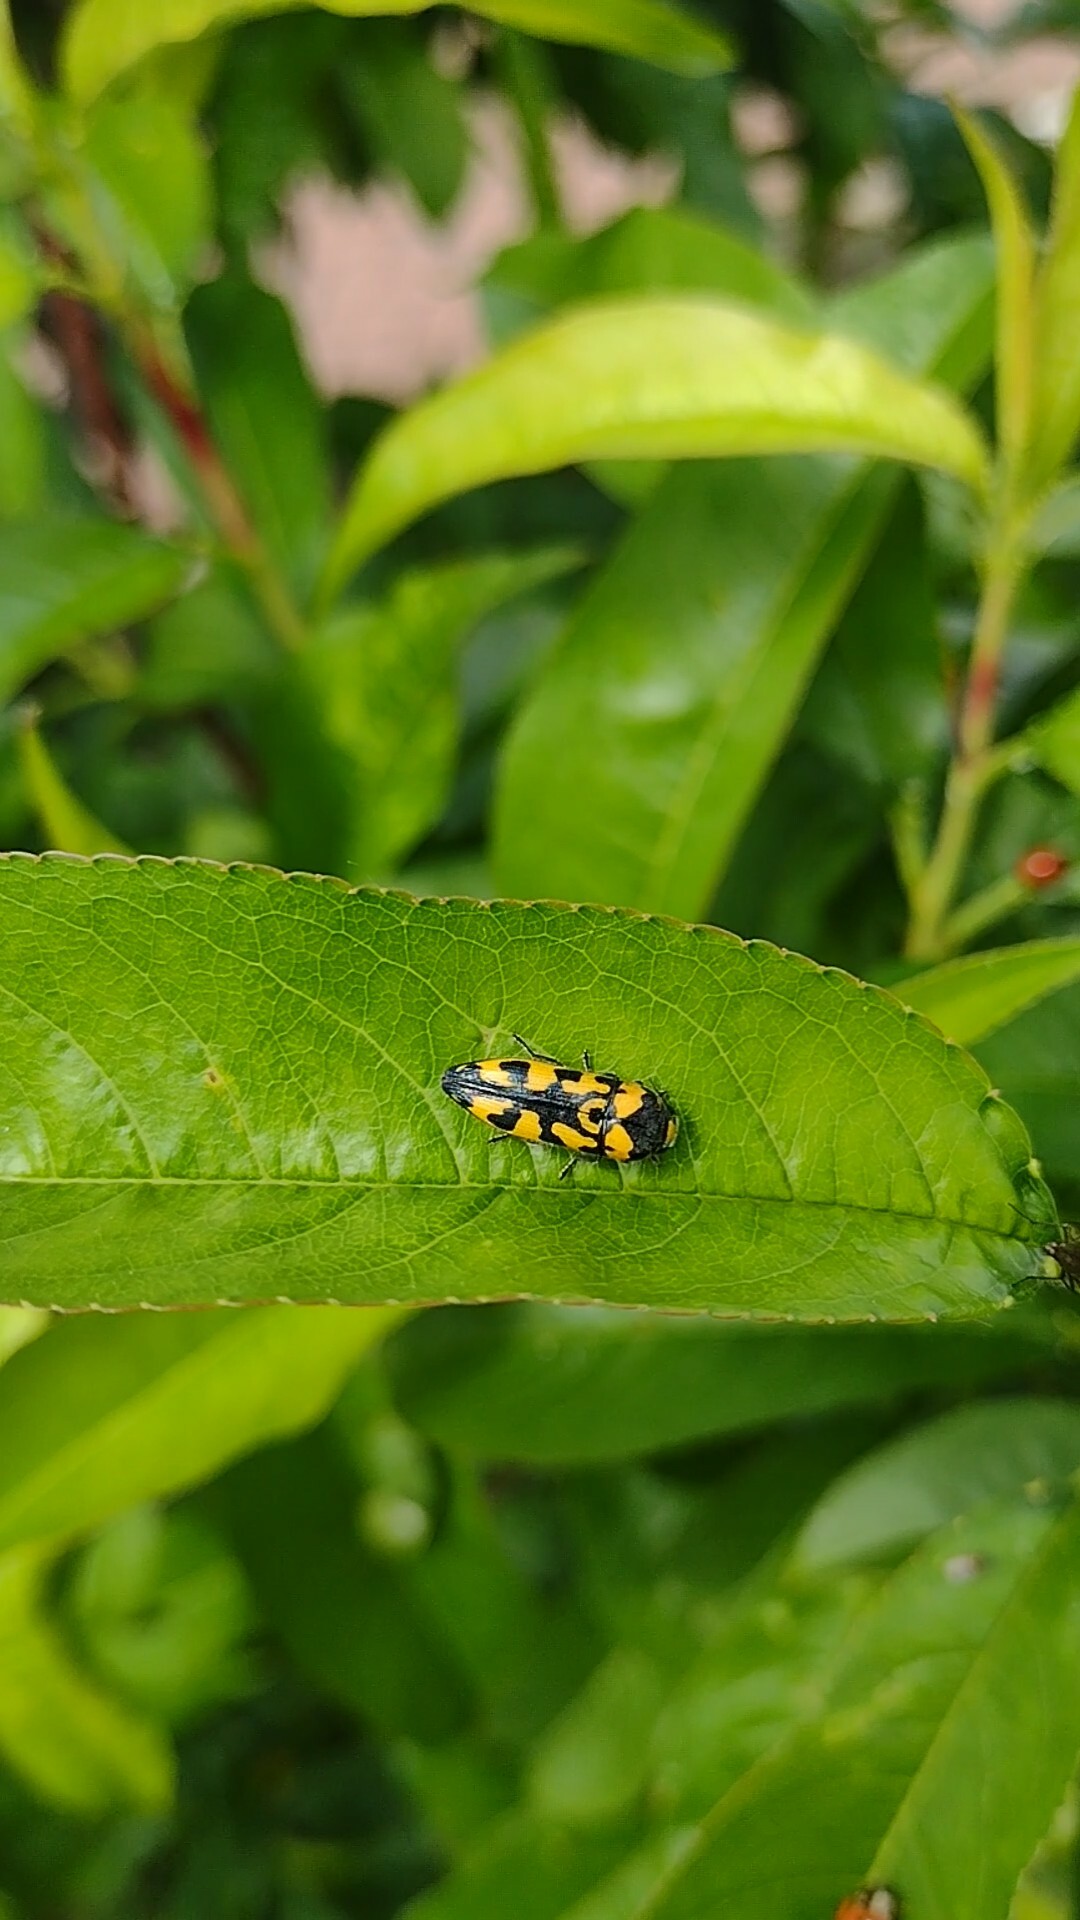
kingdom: Animalia
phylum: Arthropoda
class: Insecta
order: Coleoptera
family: Buprestidae
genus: Ptosima
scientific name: Ptosima undecimmaculata
